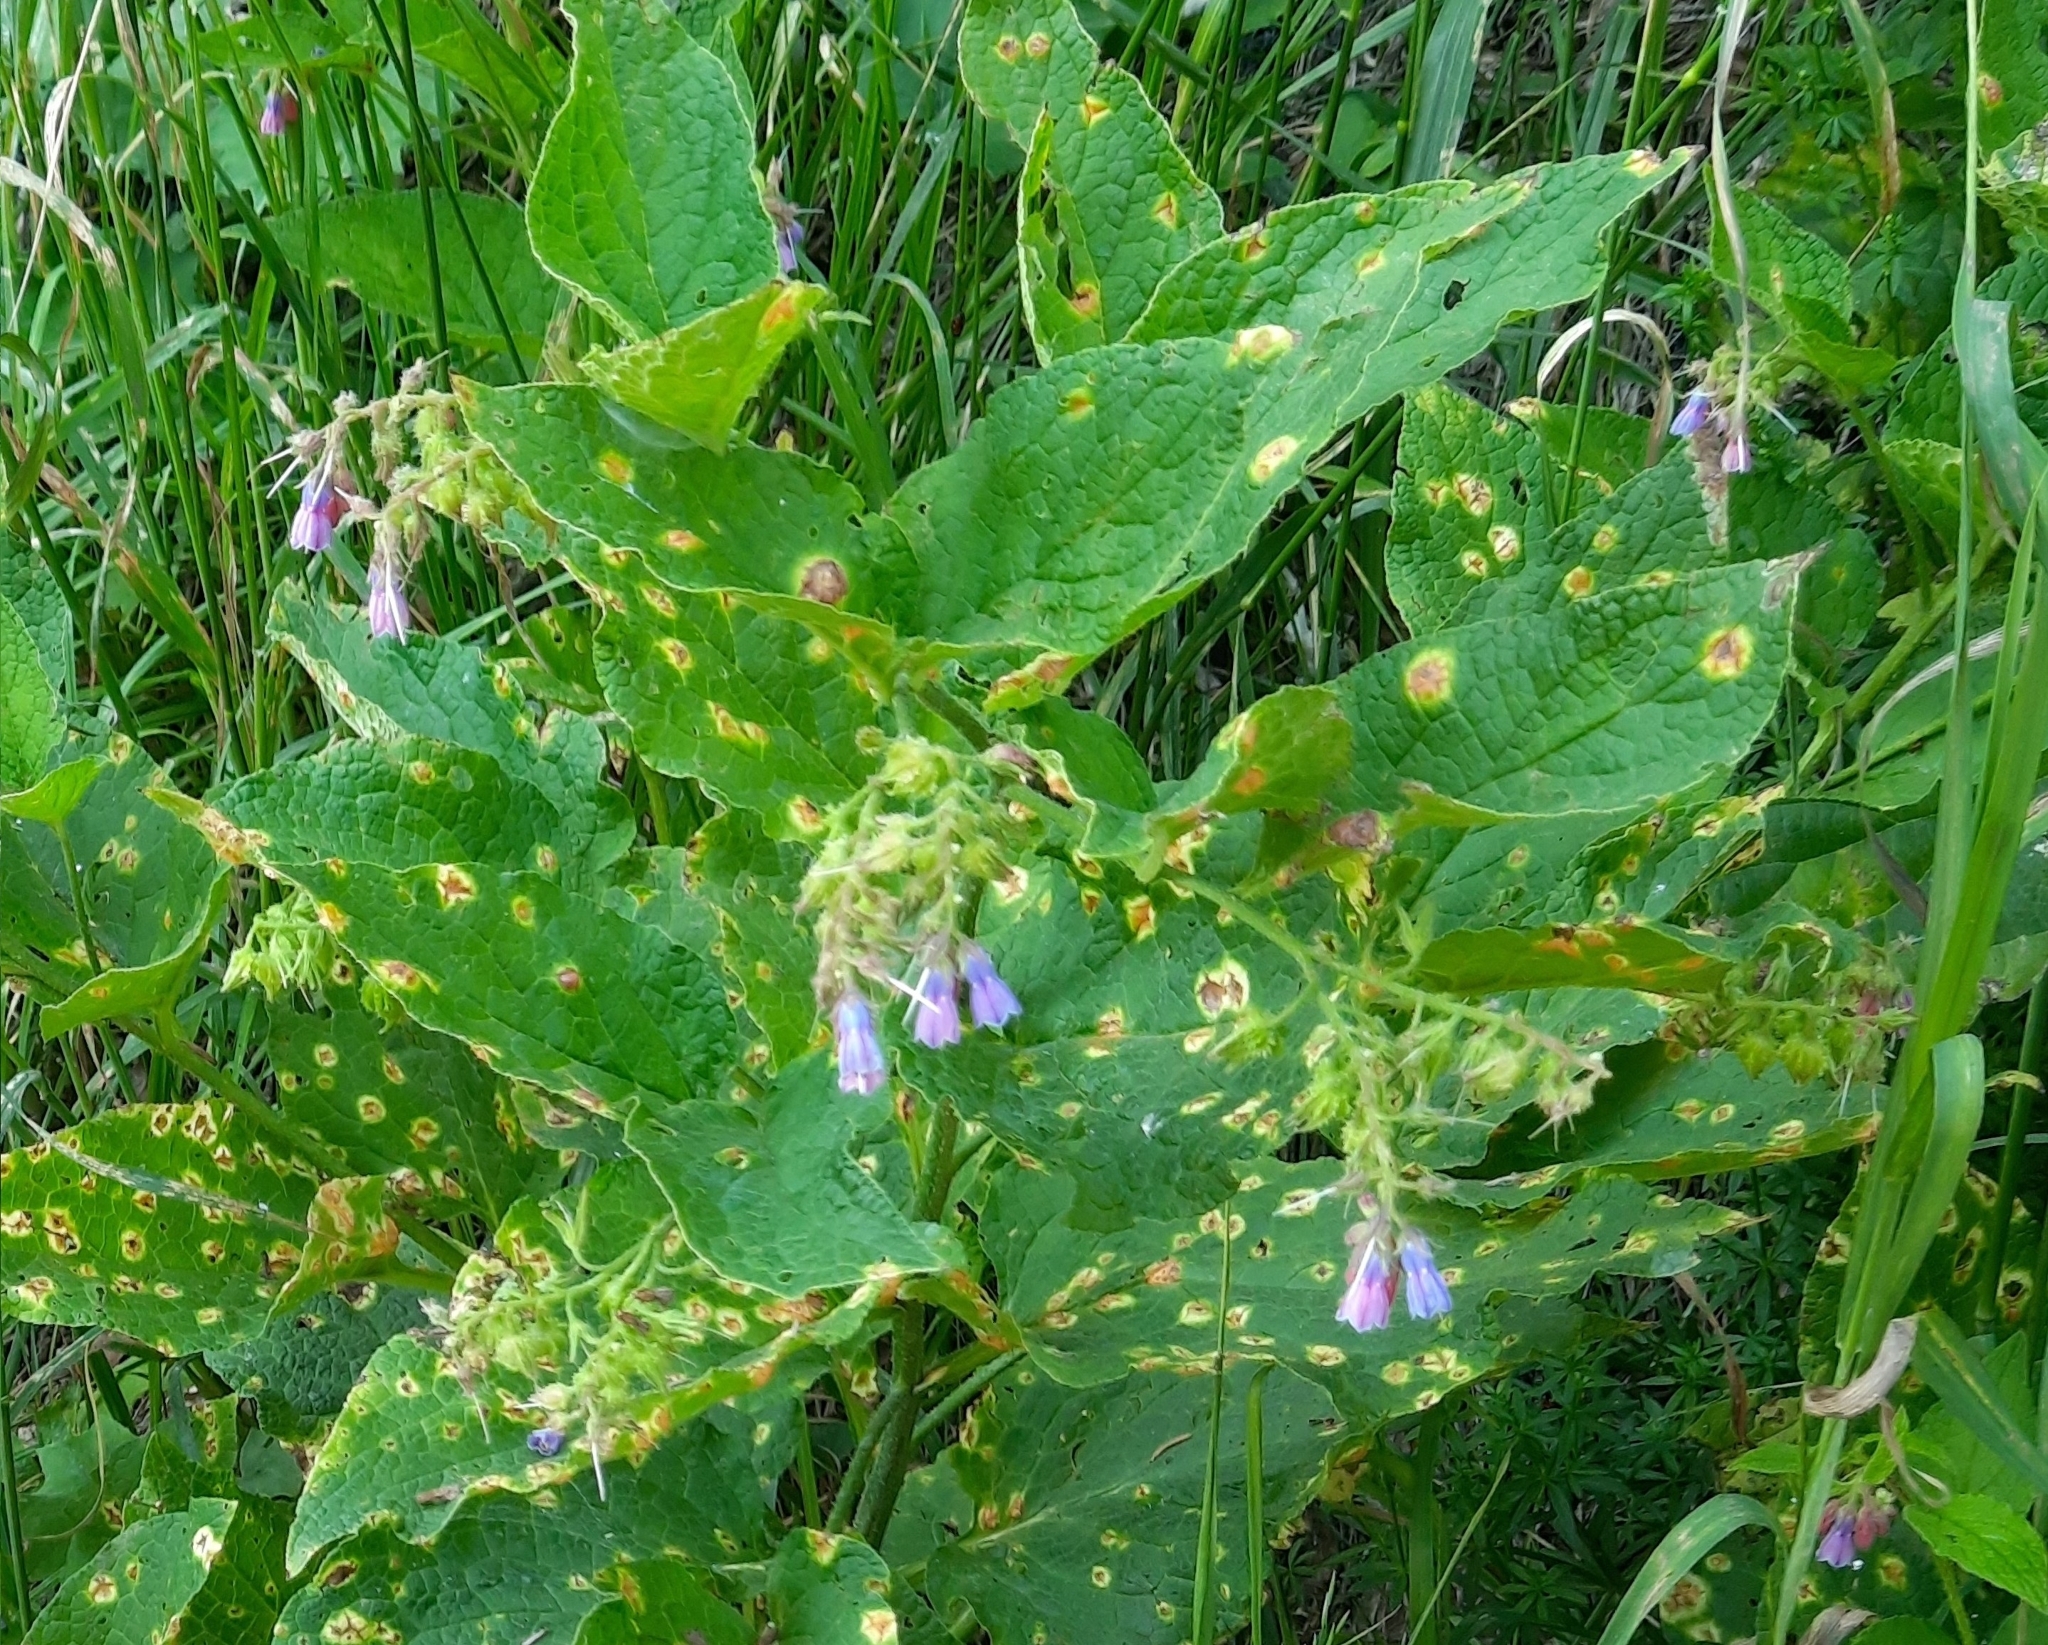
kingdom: Plantae
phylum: Tracheophyta
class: Magnoliopsida
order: Boraginales
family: Boraginaceae
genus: Symphytum
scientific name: Symphytum asperum
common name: Prickly comfrey
